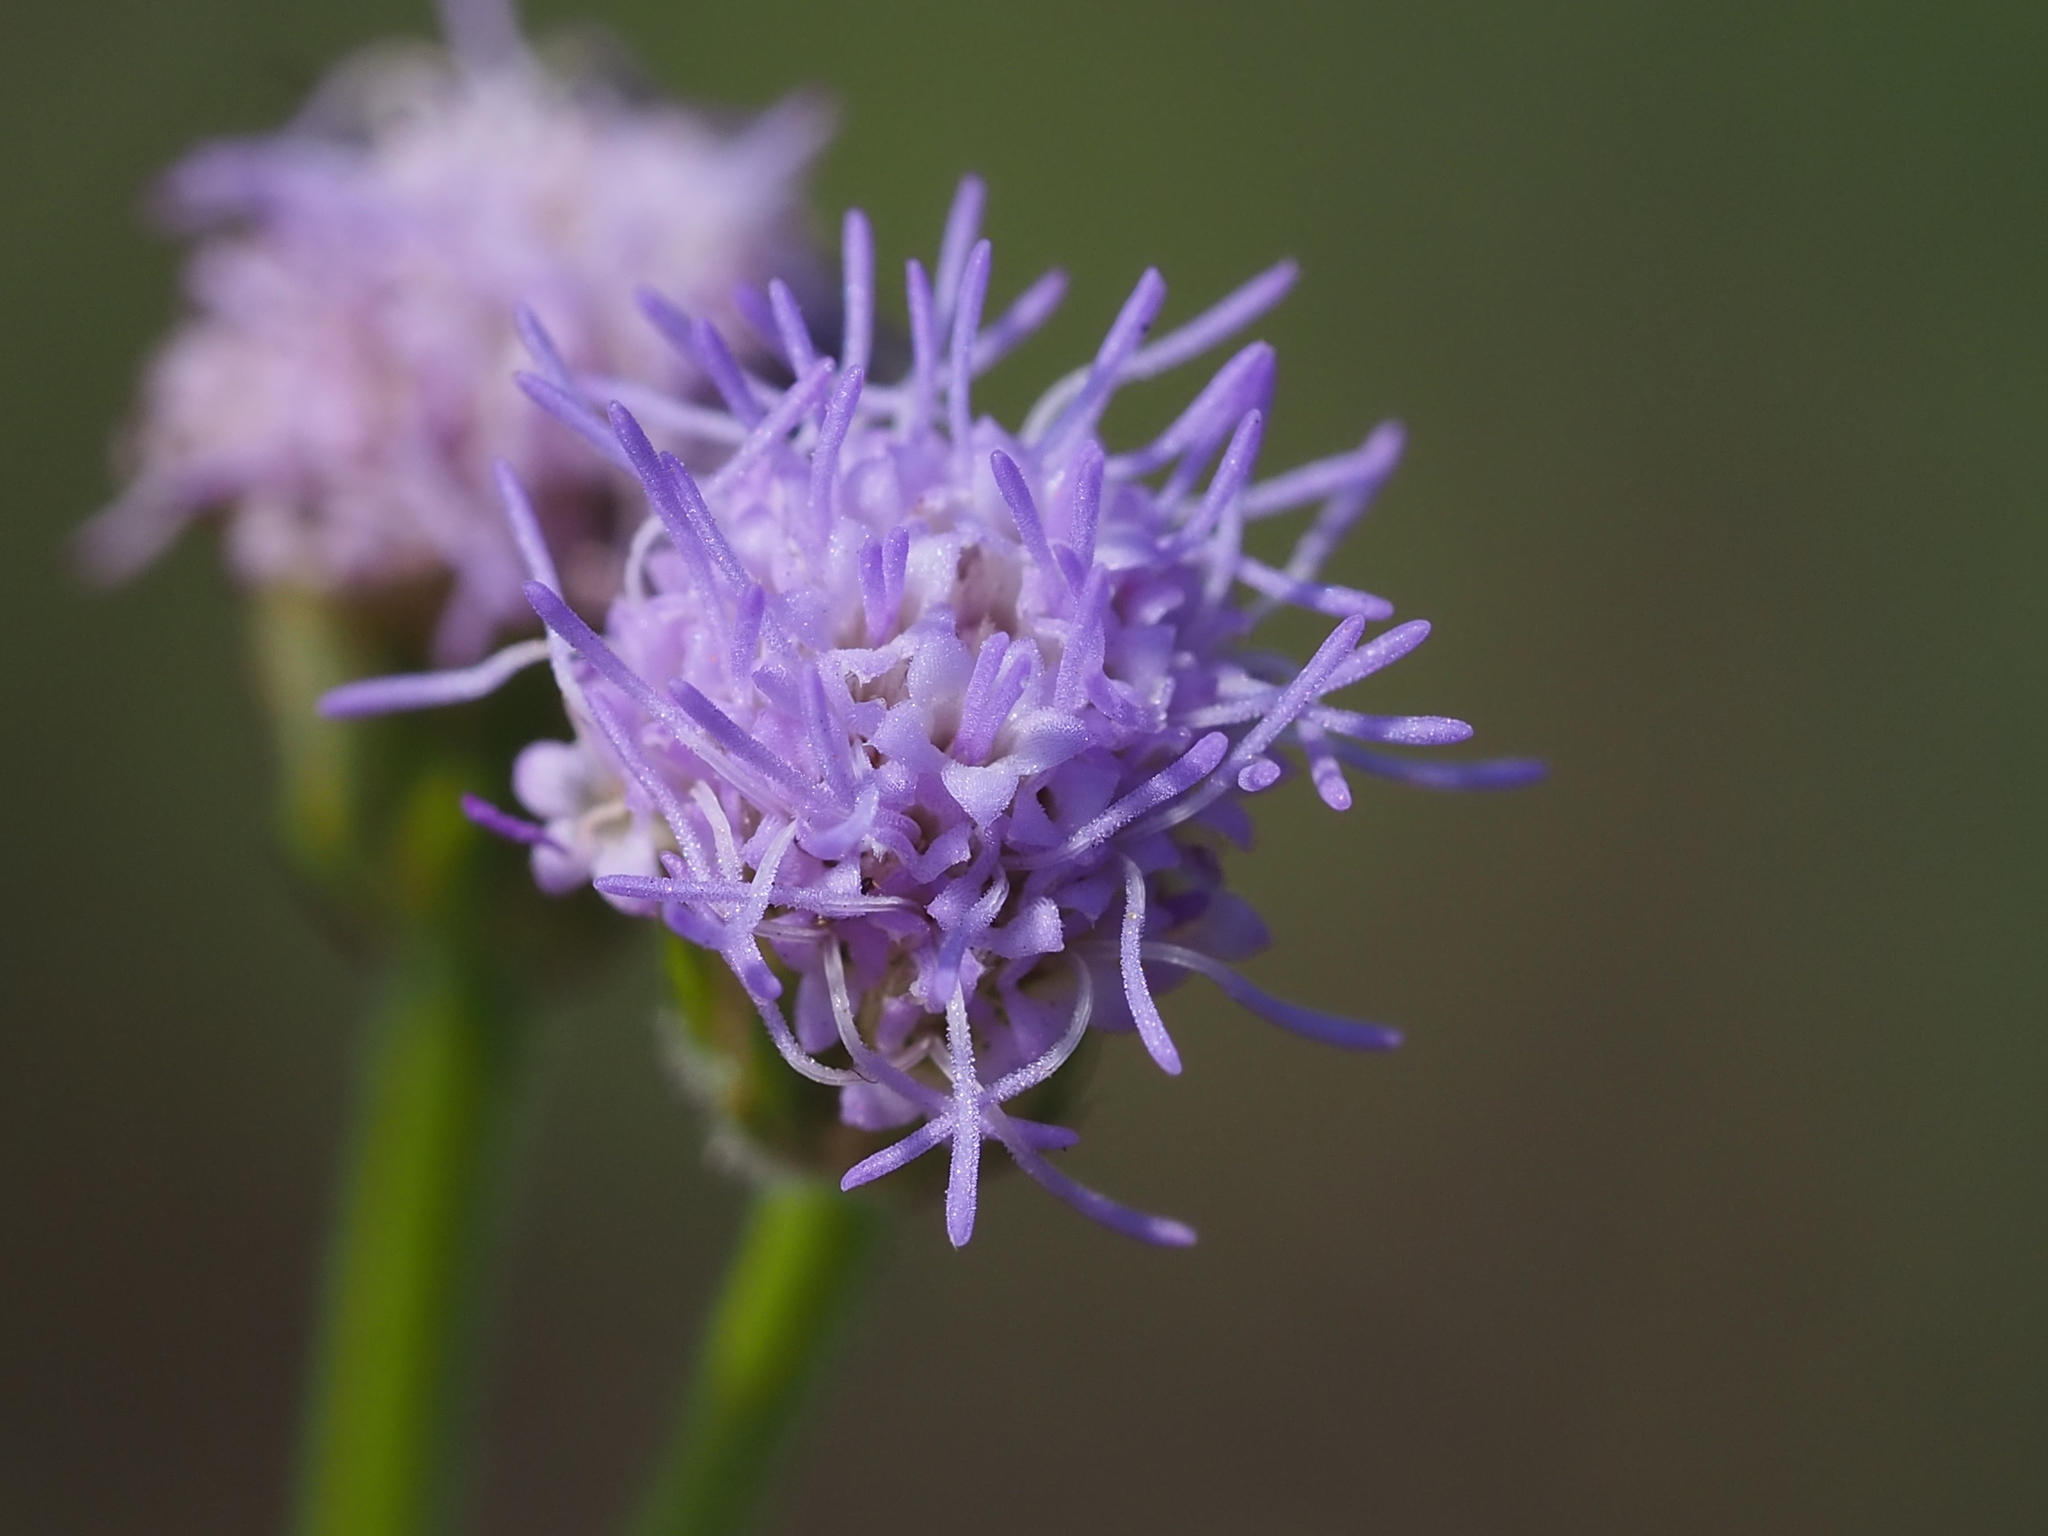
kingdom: Plantae
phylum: Tracheophyta
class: Magnoliopsida
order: Asterales
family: Asteraceae
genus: Praxelis
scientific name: Praxelis clematidea
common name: Praxelis
